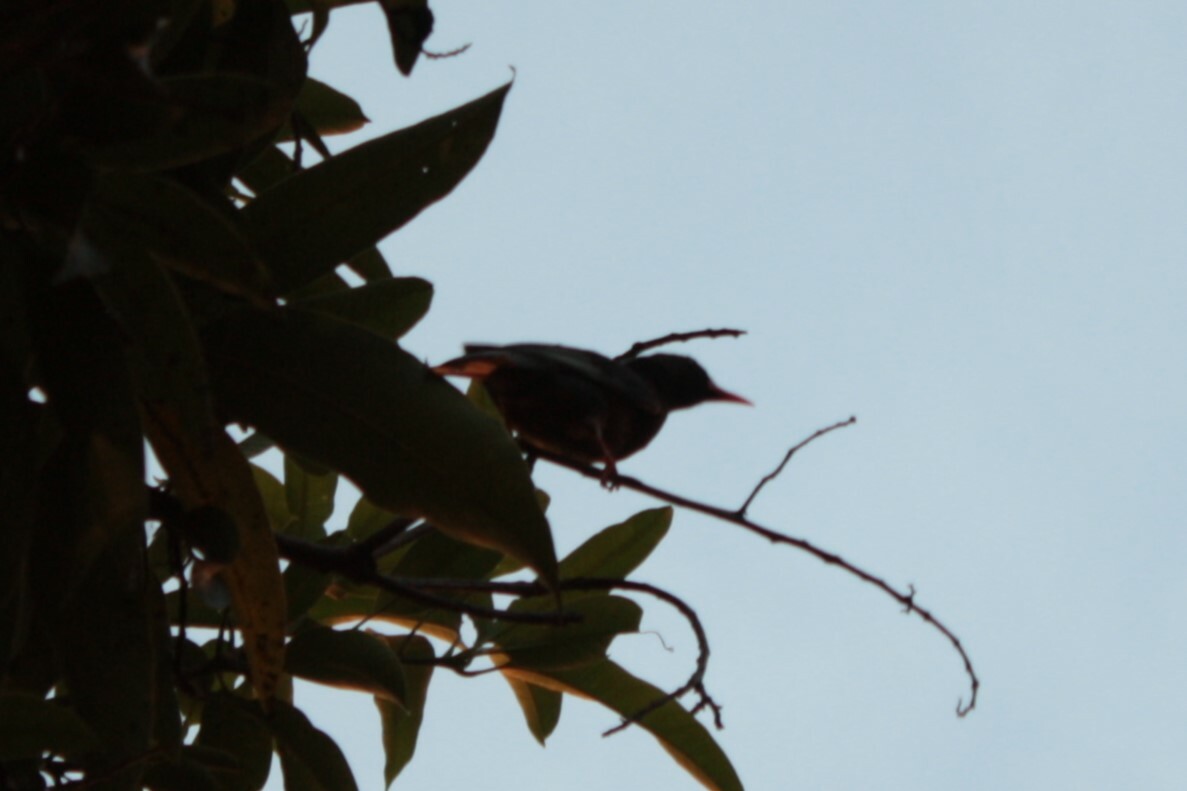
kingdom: Animalia
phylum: Chordata
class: Aves
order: Passeriformes
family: Pycnonotidae
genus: Hypsipetes
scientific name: Hypsipetes leucocephalus
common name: Black bulbul
